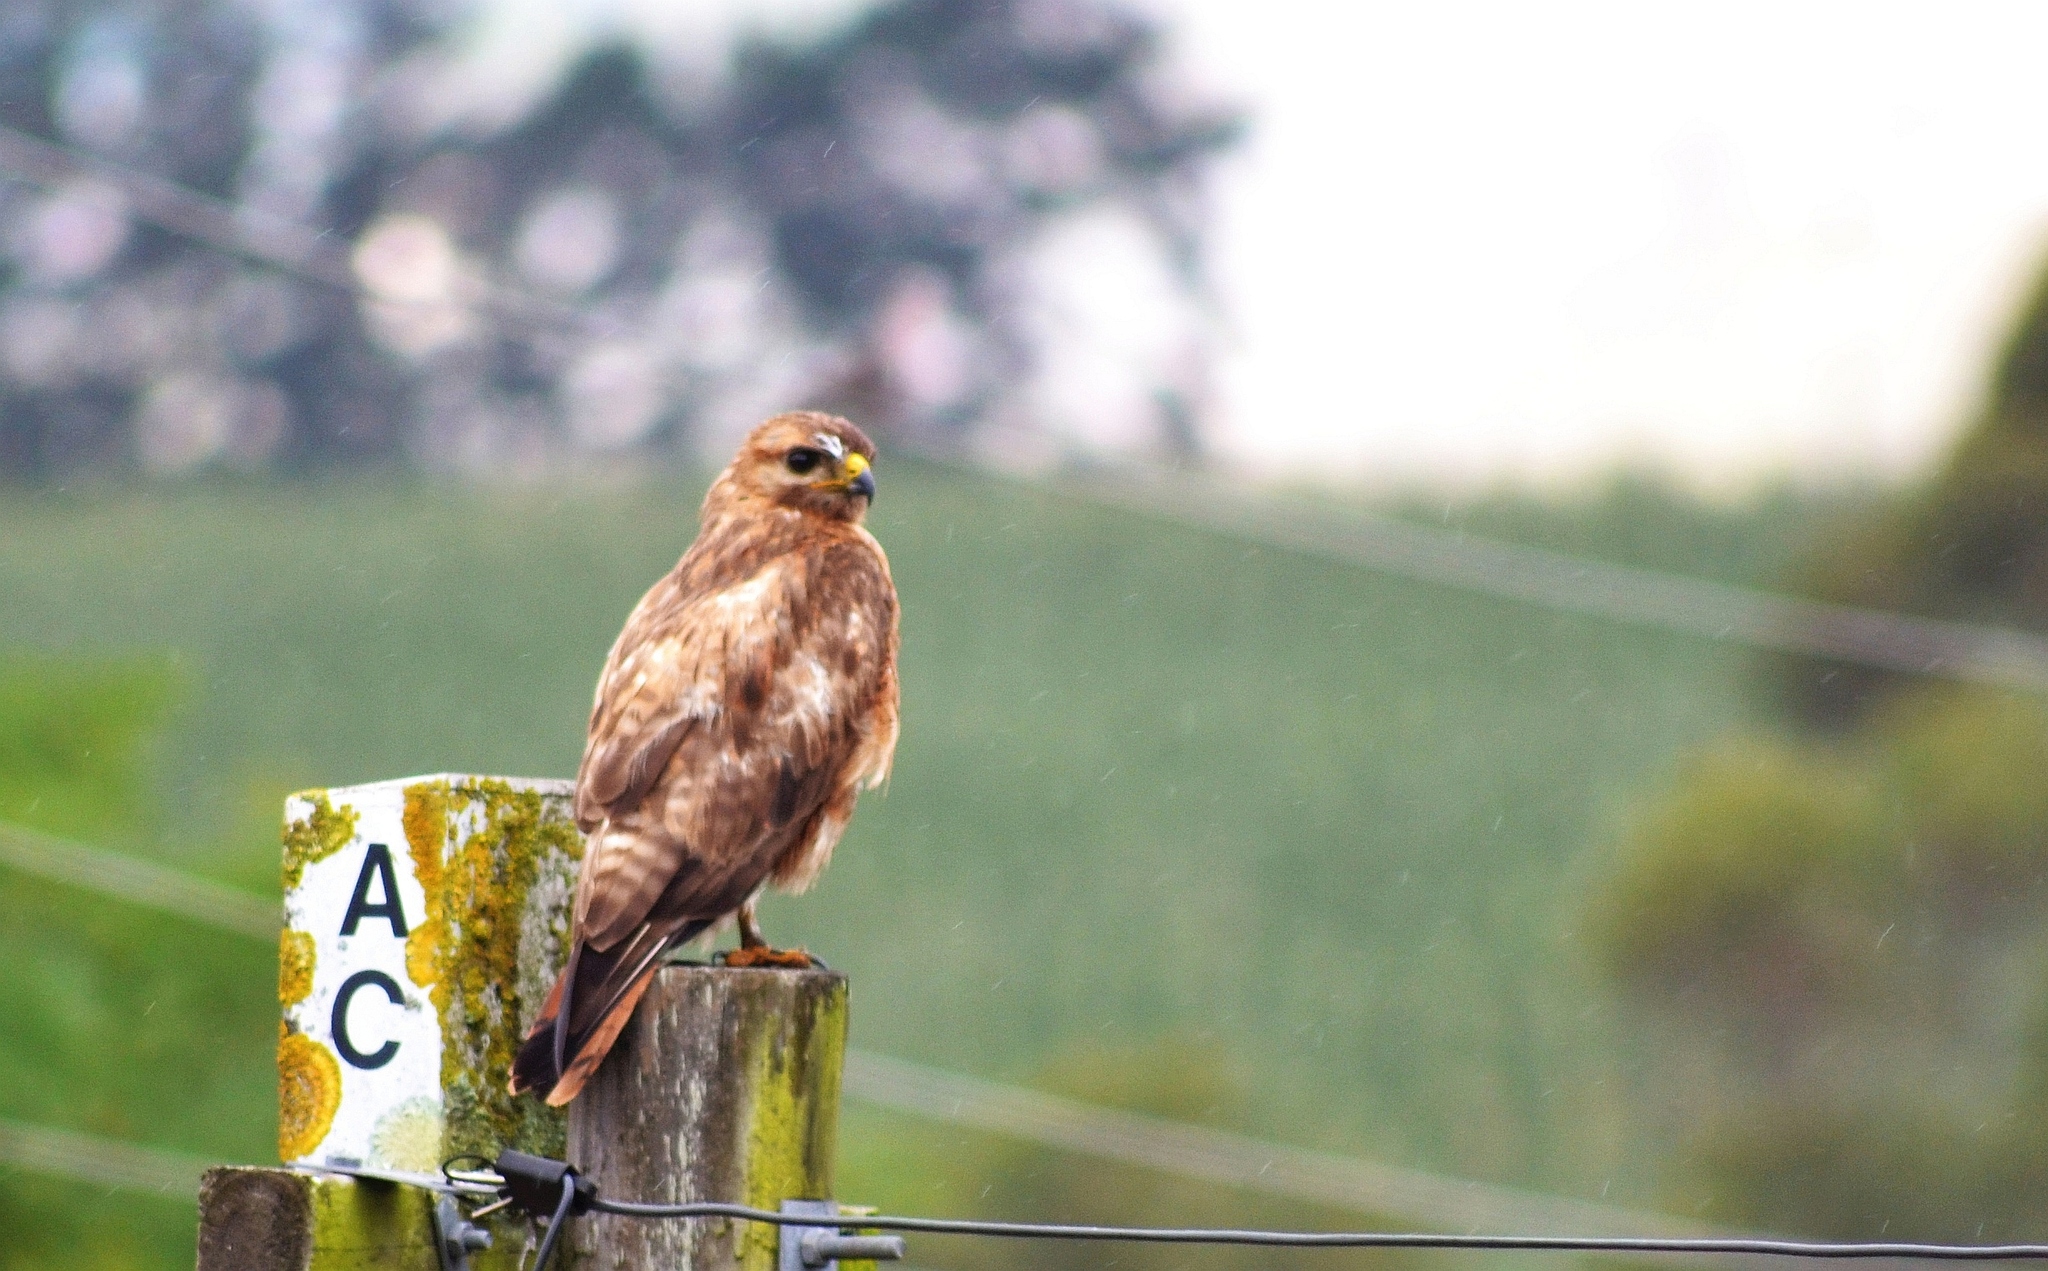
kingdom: Animalia
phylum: Chordata
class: Aves
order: Accipitriformes
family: Accipitridae
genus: Buteo
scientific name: Buteo buteo
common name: Common buzzard
